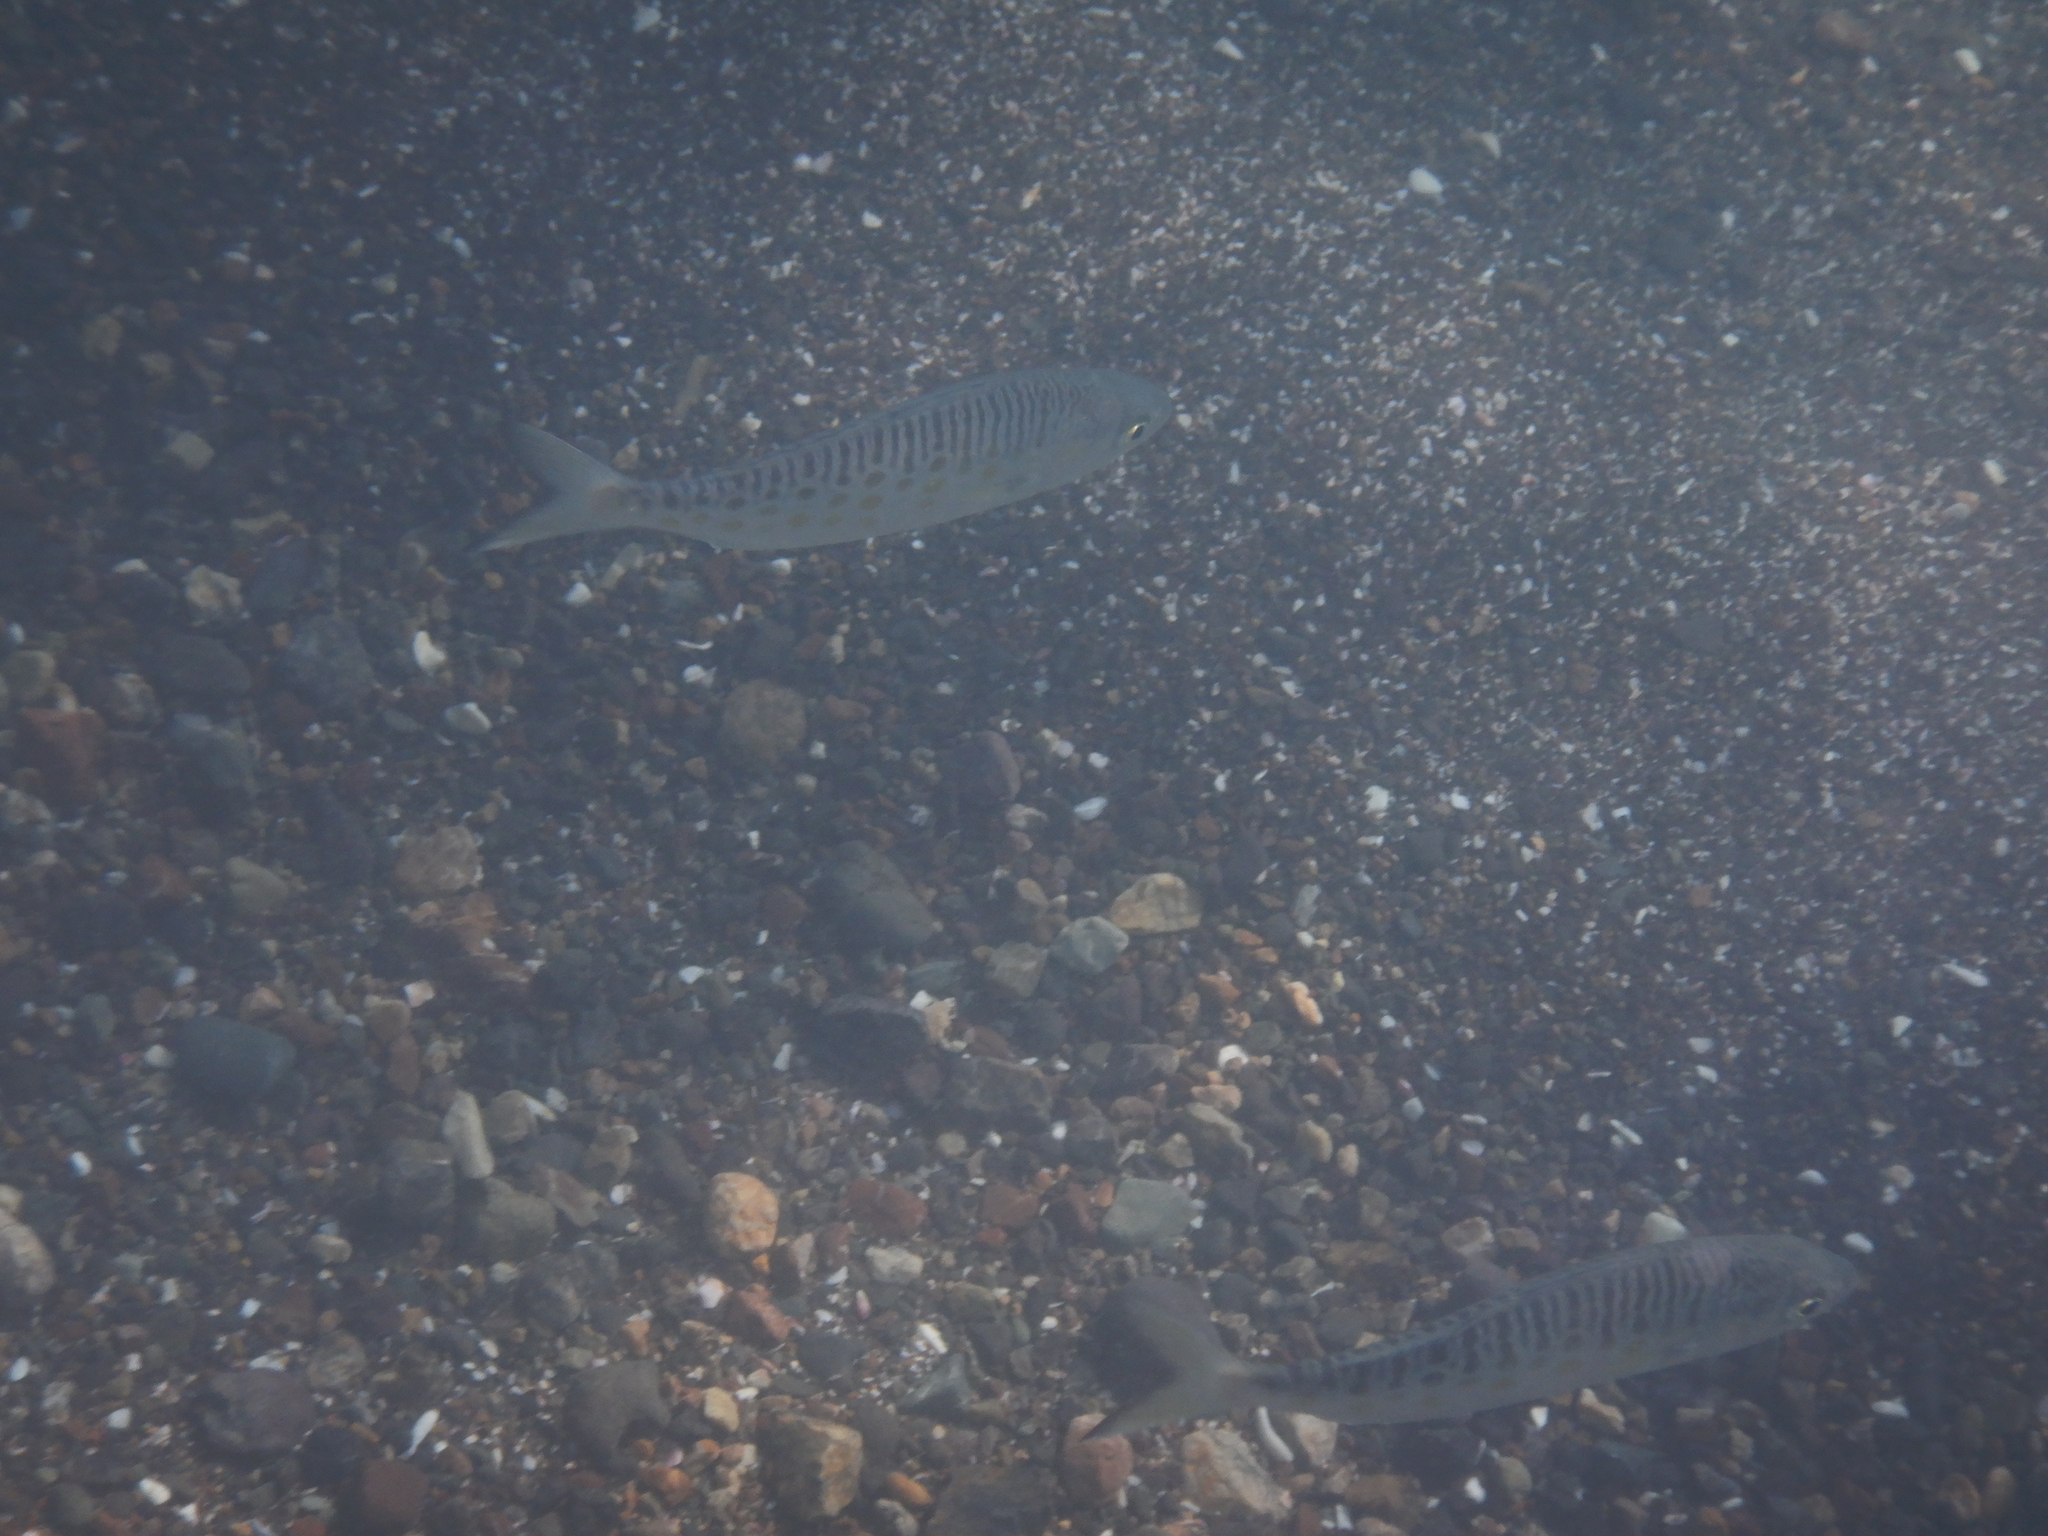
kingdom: Animalia
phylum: Chordata
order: Perciformes
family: Arripidae
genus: Arripis
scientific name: Arripis trutta
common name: Kahawai
